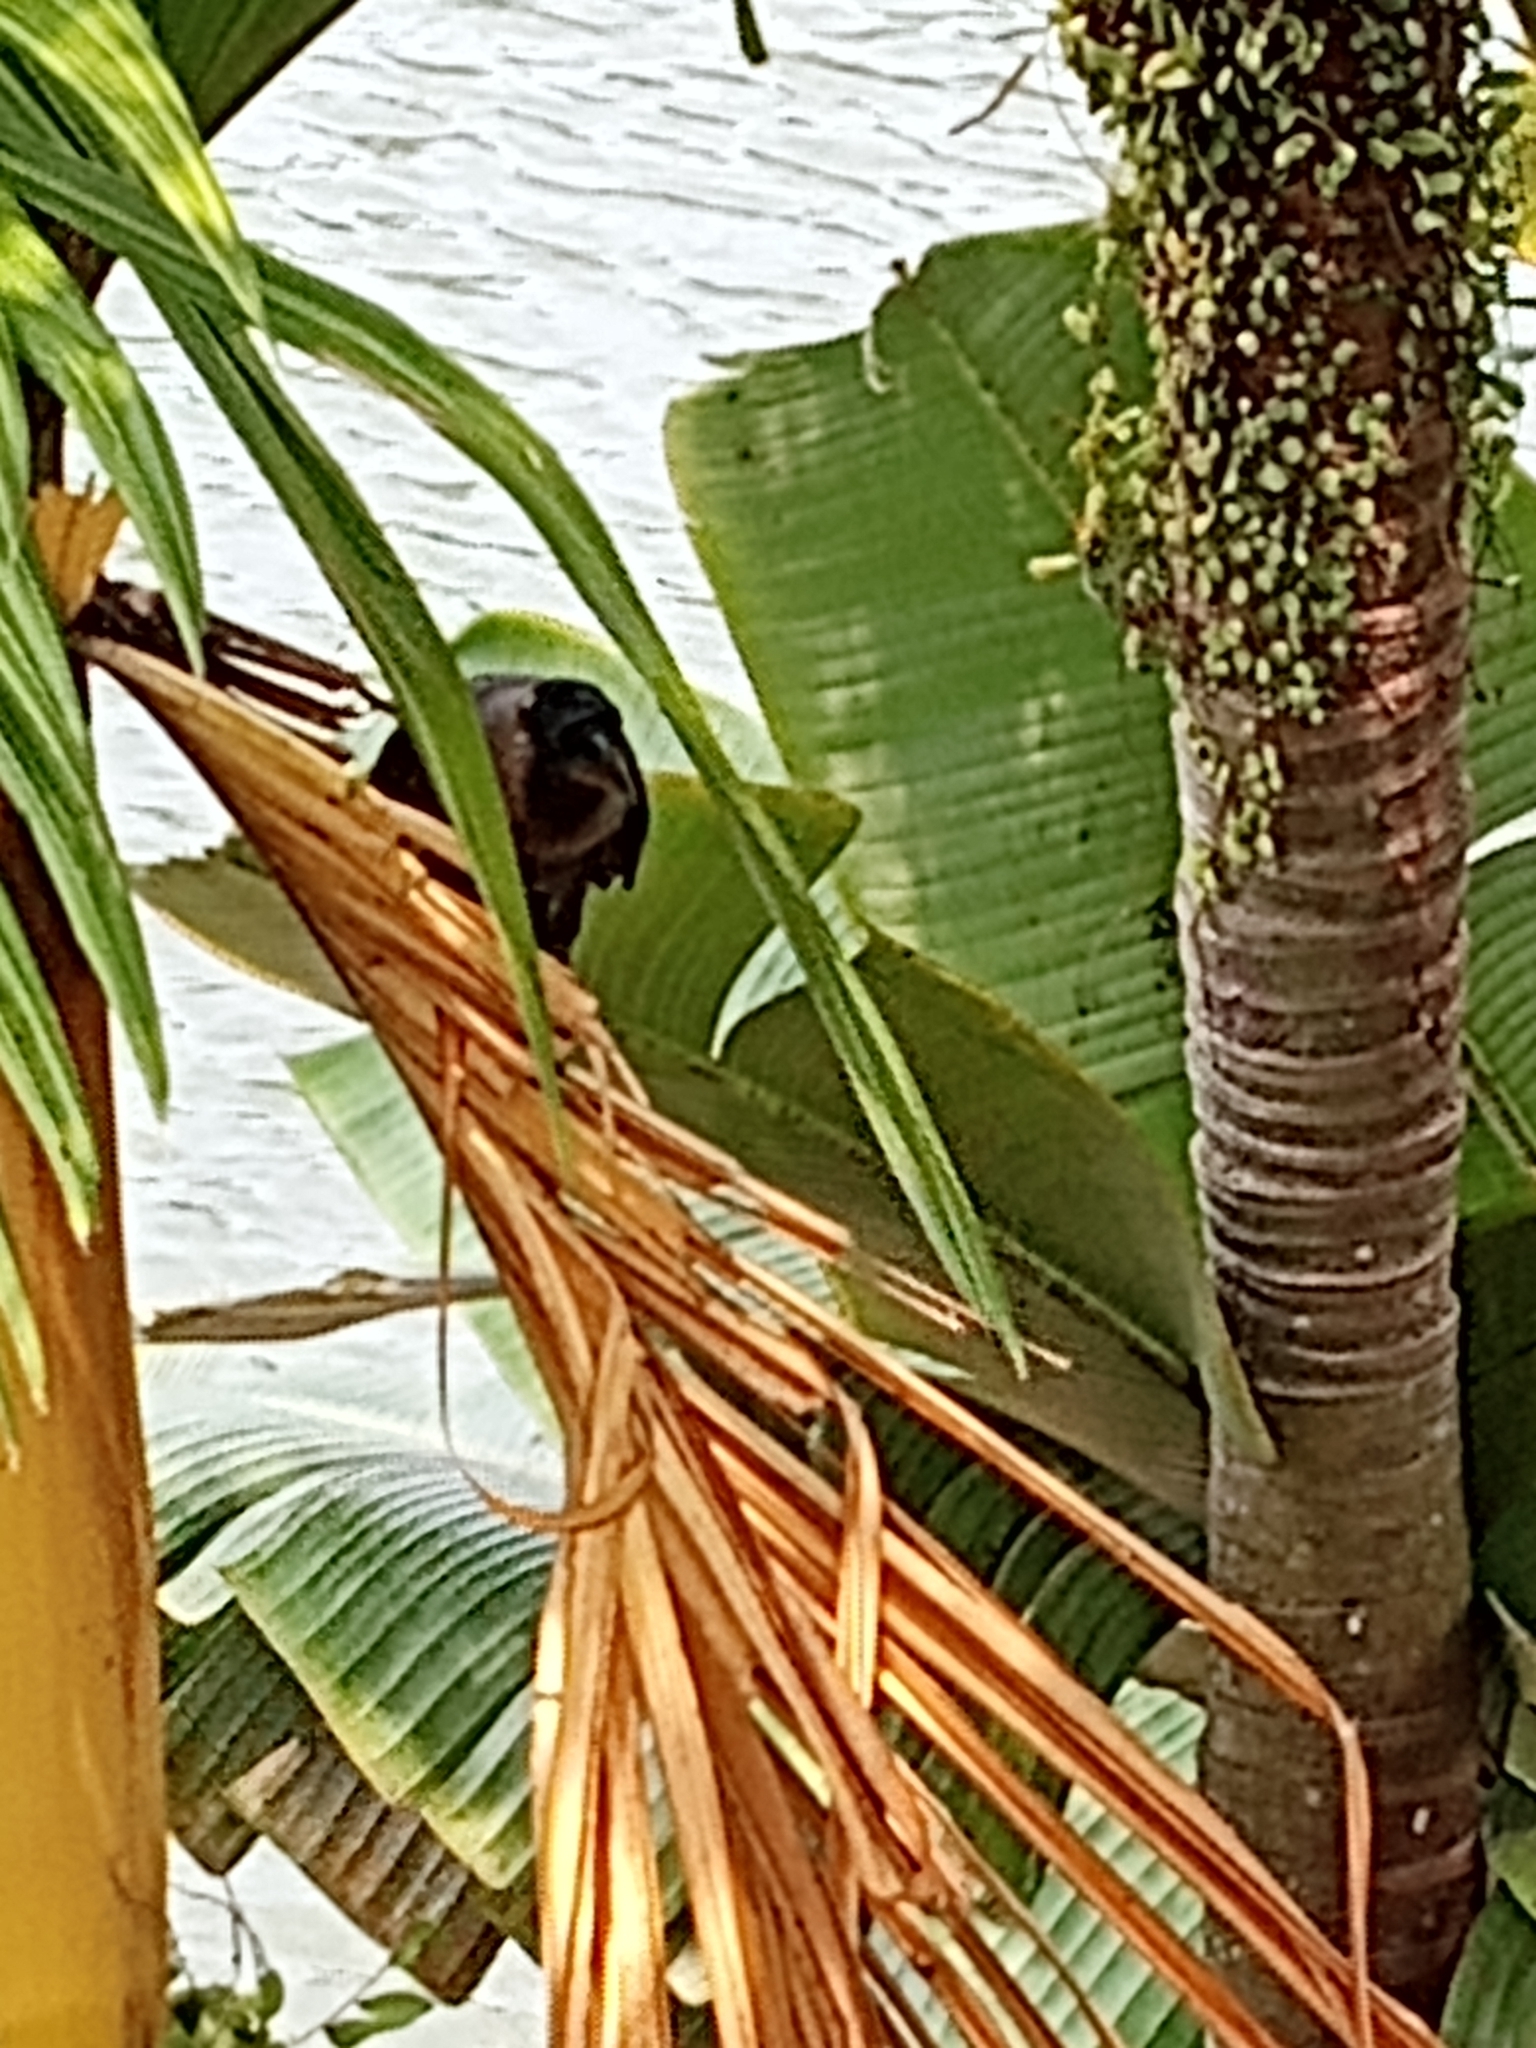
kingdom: Animalia
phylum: Chordata
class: Aves
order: Passeriformes
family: Corvidae
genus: Corvus
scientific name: Corvus splendens
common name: House crow
